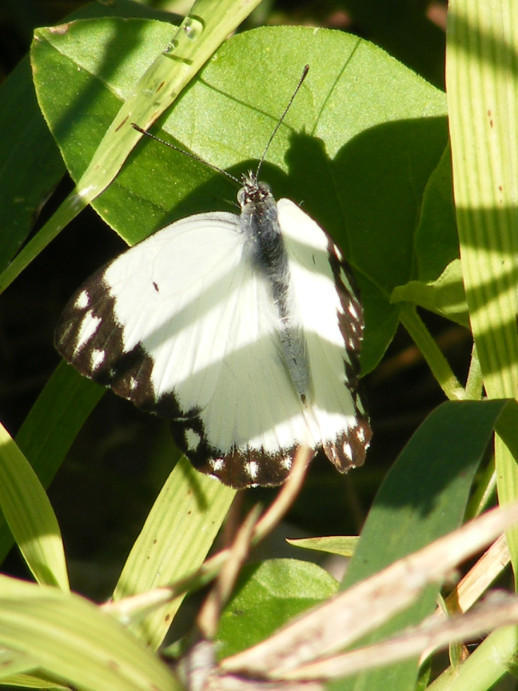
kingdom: Animalia
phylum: Arthropoda
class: Insecta
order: Lepidoptera
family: Pieridae
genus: Belenois
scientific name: Belenois creona
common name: African caper white
